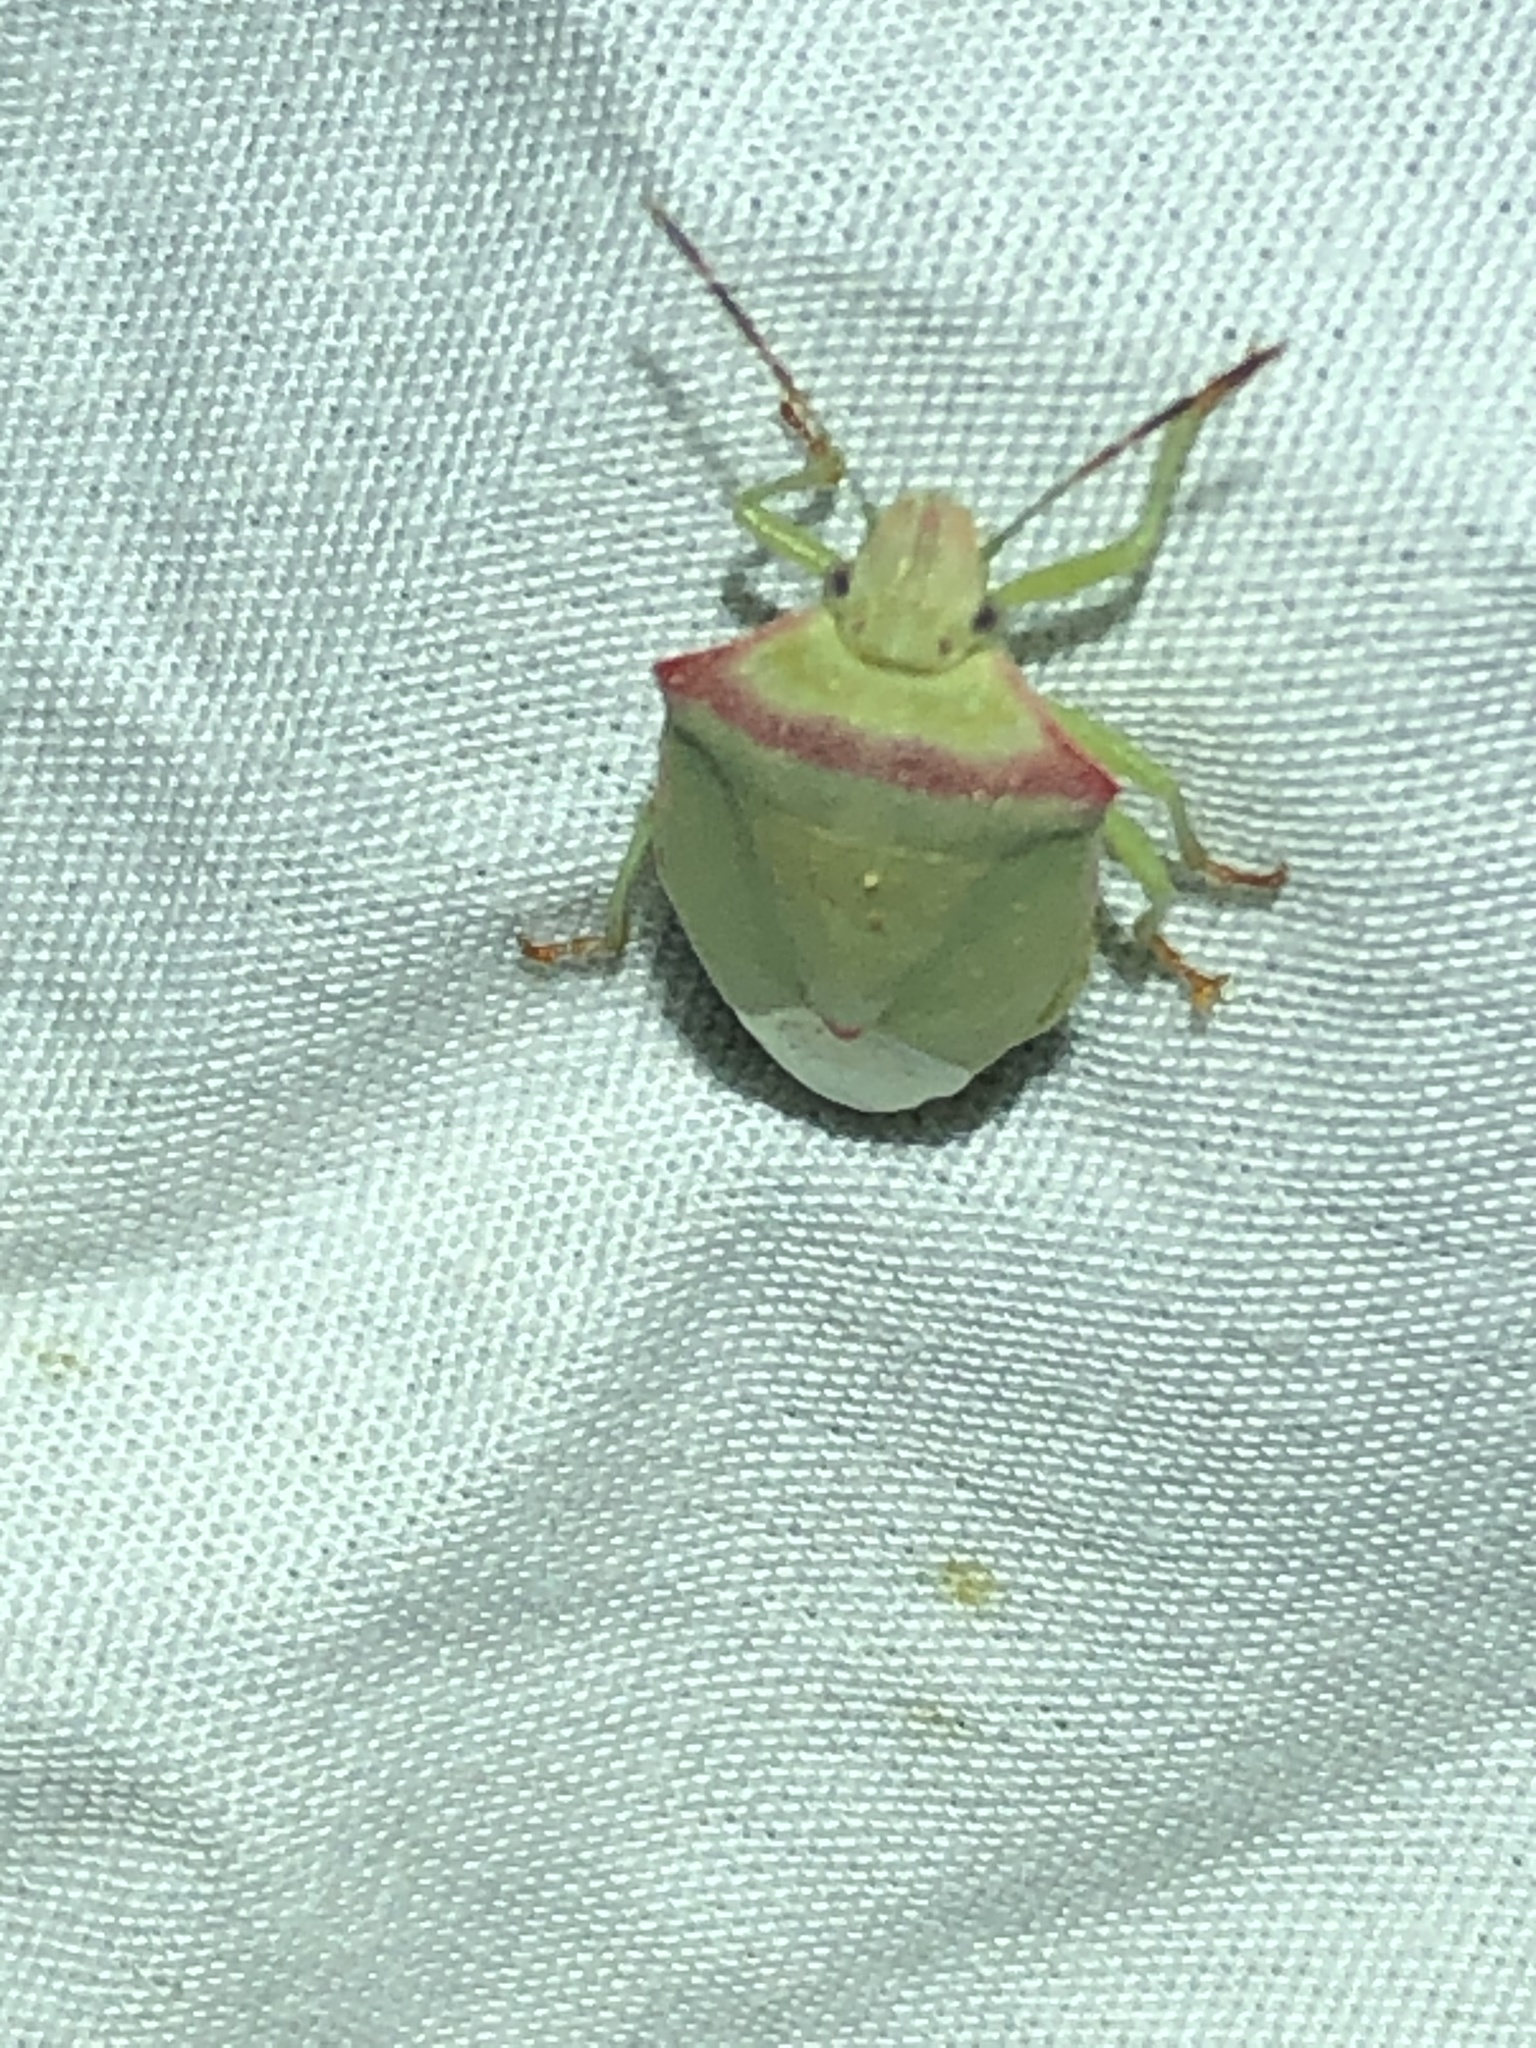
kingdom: Animalia
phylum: Arthropoda
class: Insecta
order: Hemiptera
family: Pentatomidae
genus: Thyanta
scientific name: Thyanta custator
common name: Stink bug
